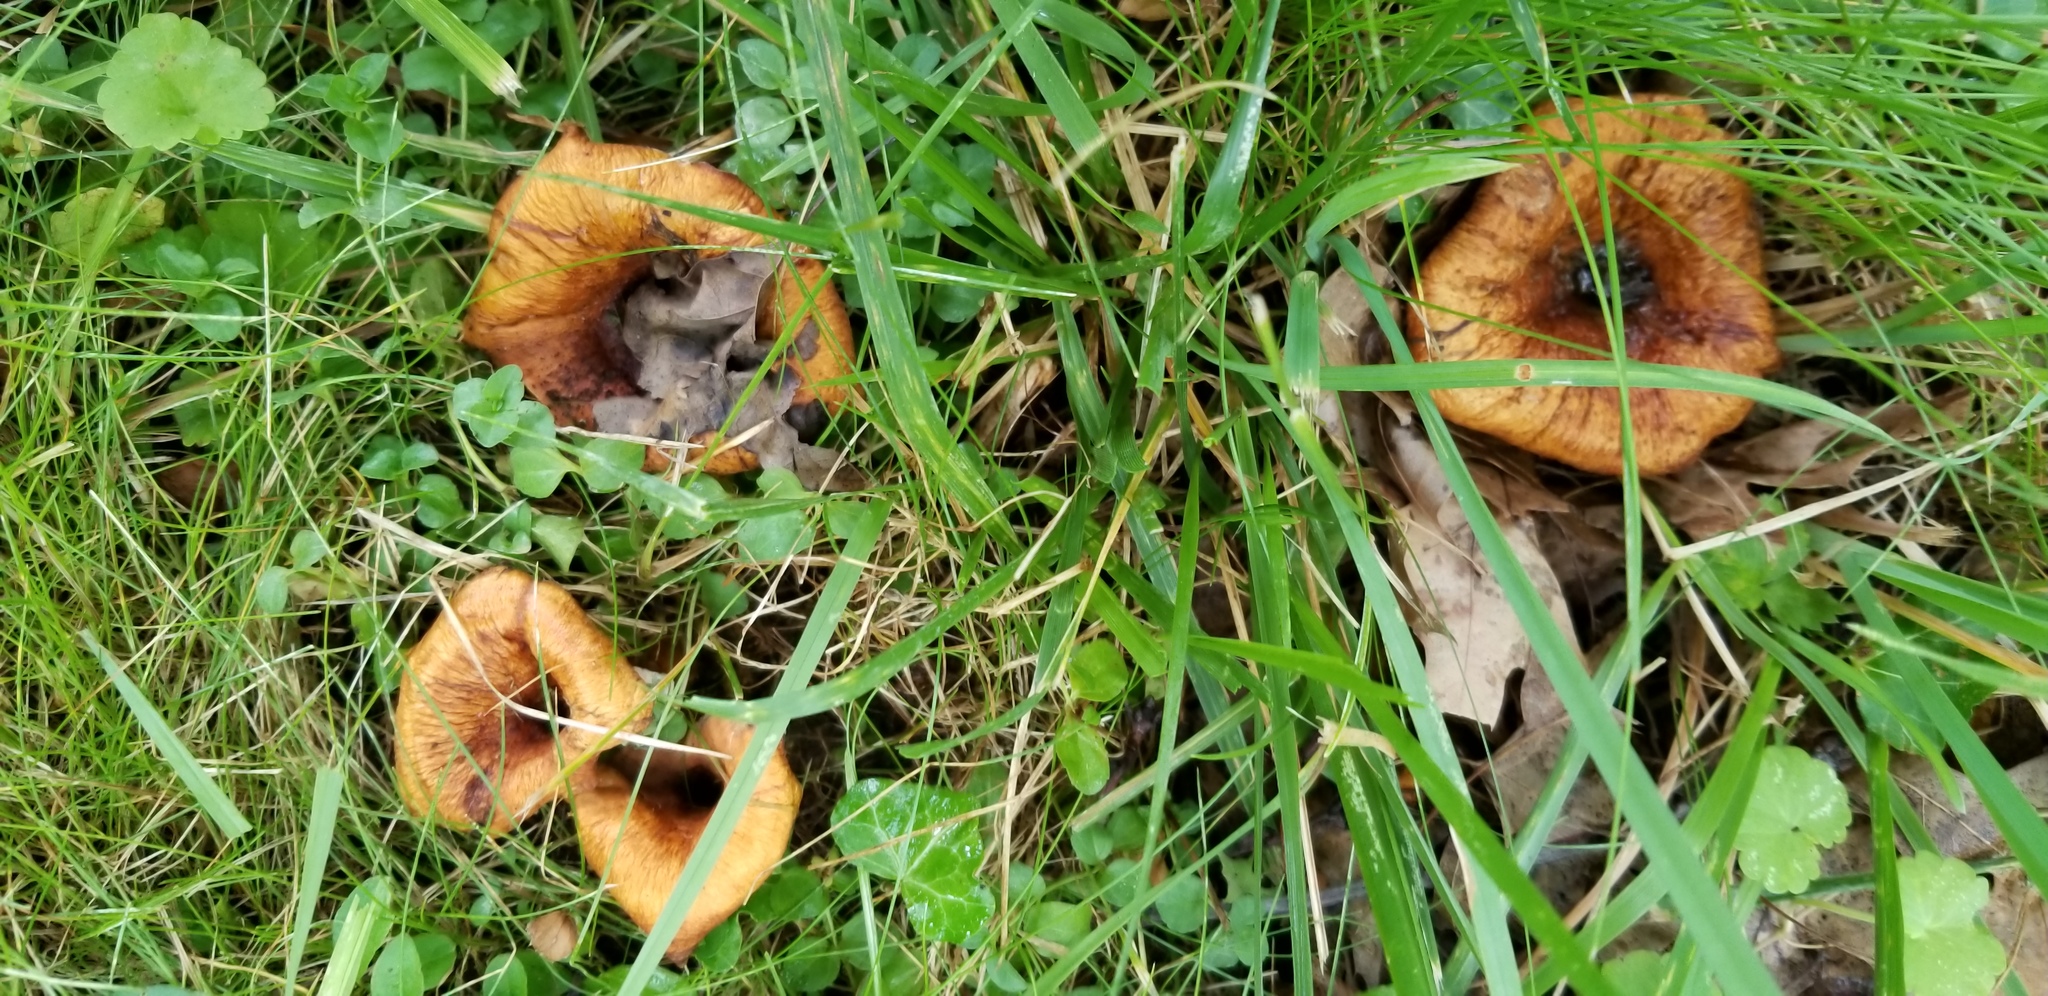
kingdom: Fungi
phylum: Basidiomycota
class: Agaricomycetes
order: Boletales
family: Paxillaceae
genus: Paxillus
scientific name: Paxillus involutus
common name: Brown roll rim
